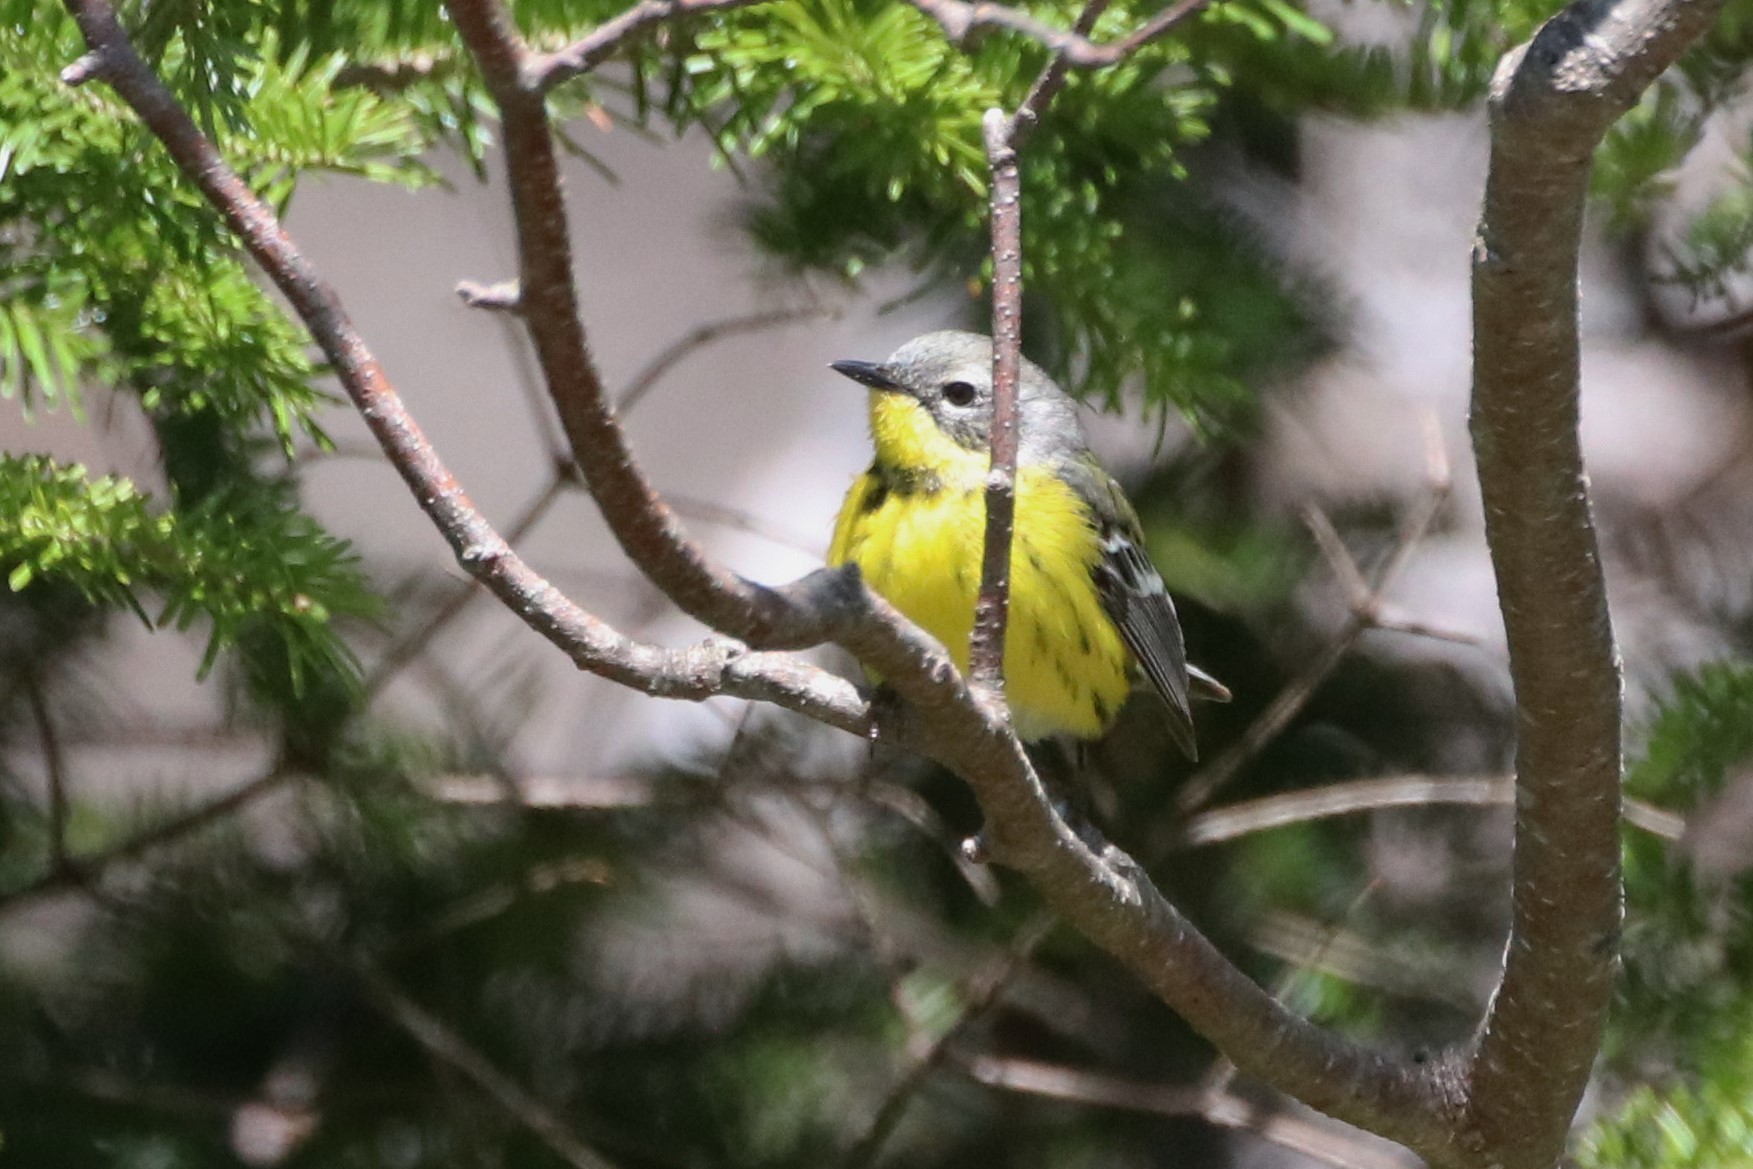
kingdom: Animalia
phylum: Chordata
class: Aves
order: Passeriformes
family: Parulidae
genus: Setophaga
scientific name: Setophaga magnolia
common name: Magnolia warbler
